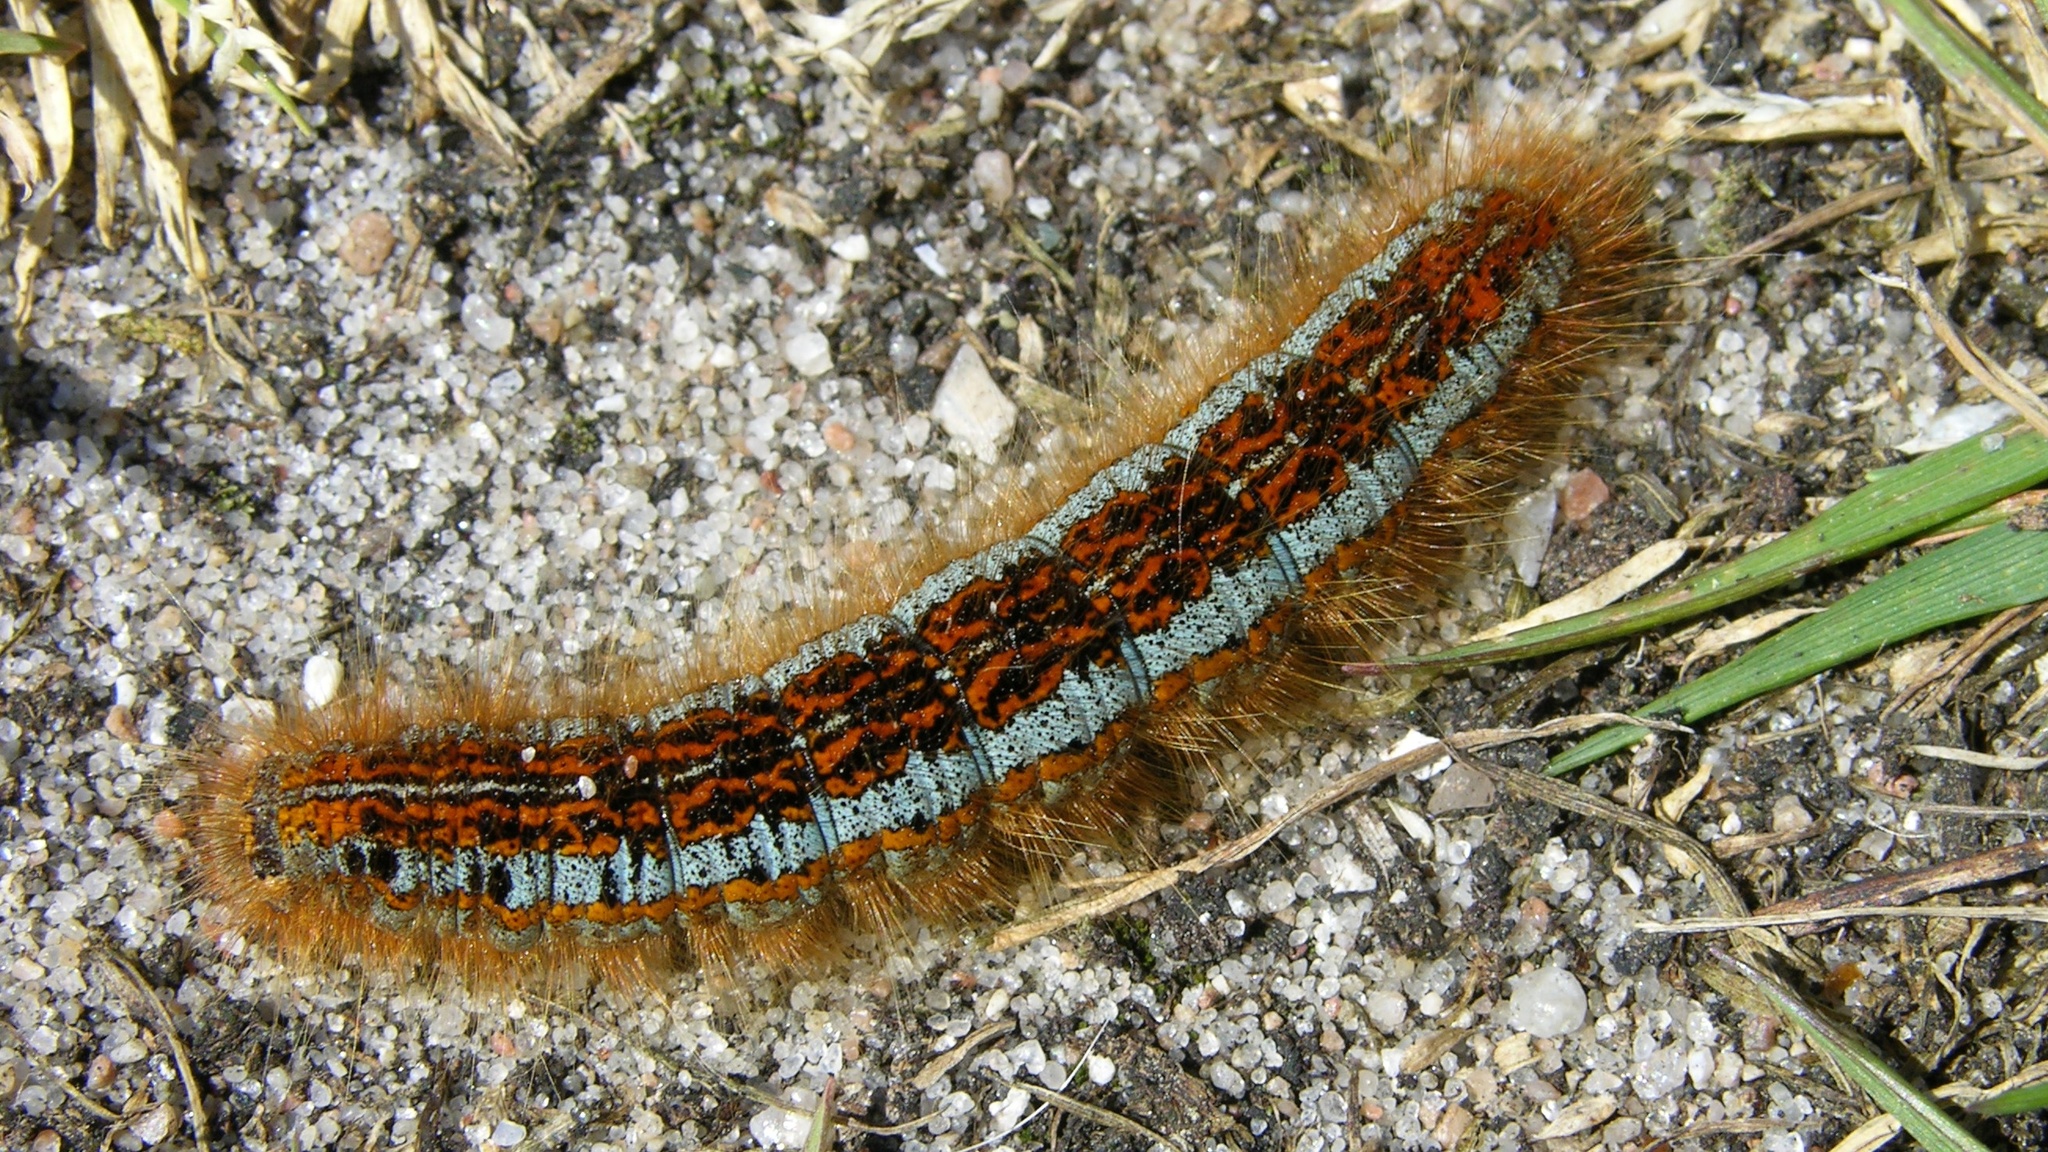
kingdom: Animalia
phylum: Arthropoda
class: Insecta
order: Lepidoptera
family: Lasiocampidae
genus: Malacosoma
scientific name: Malacosoma castrense
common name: Ground lackey
